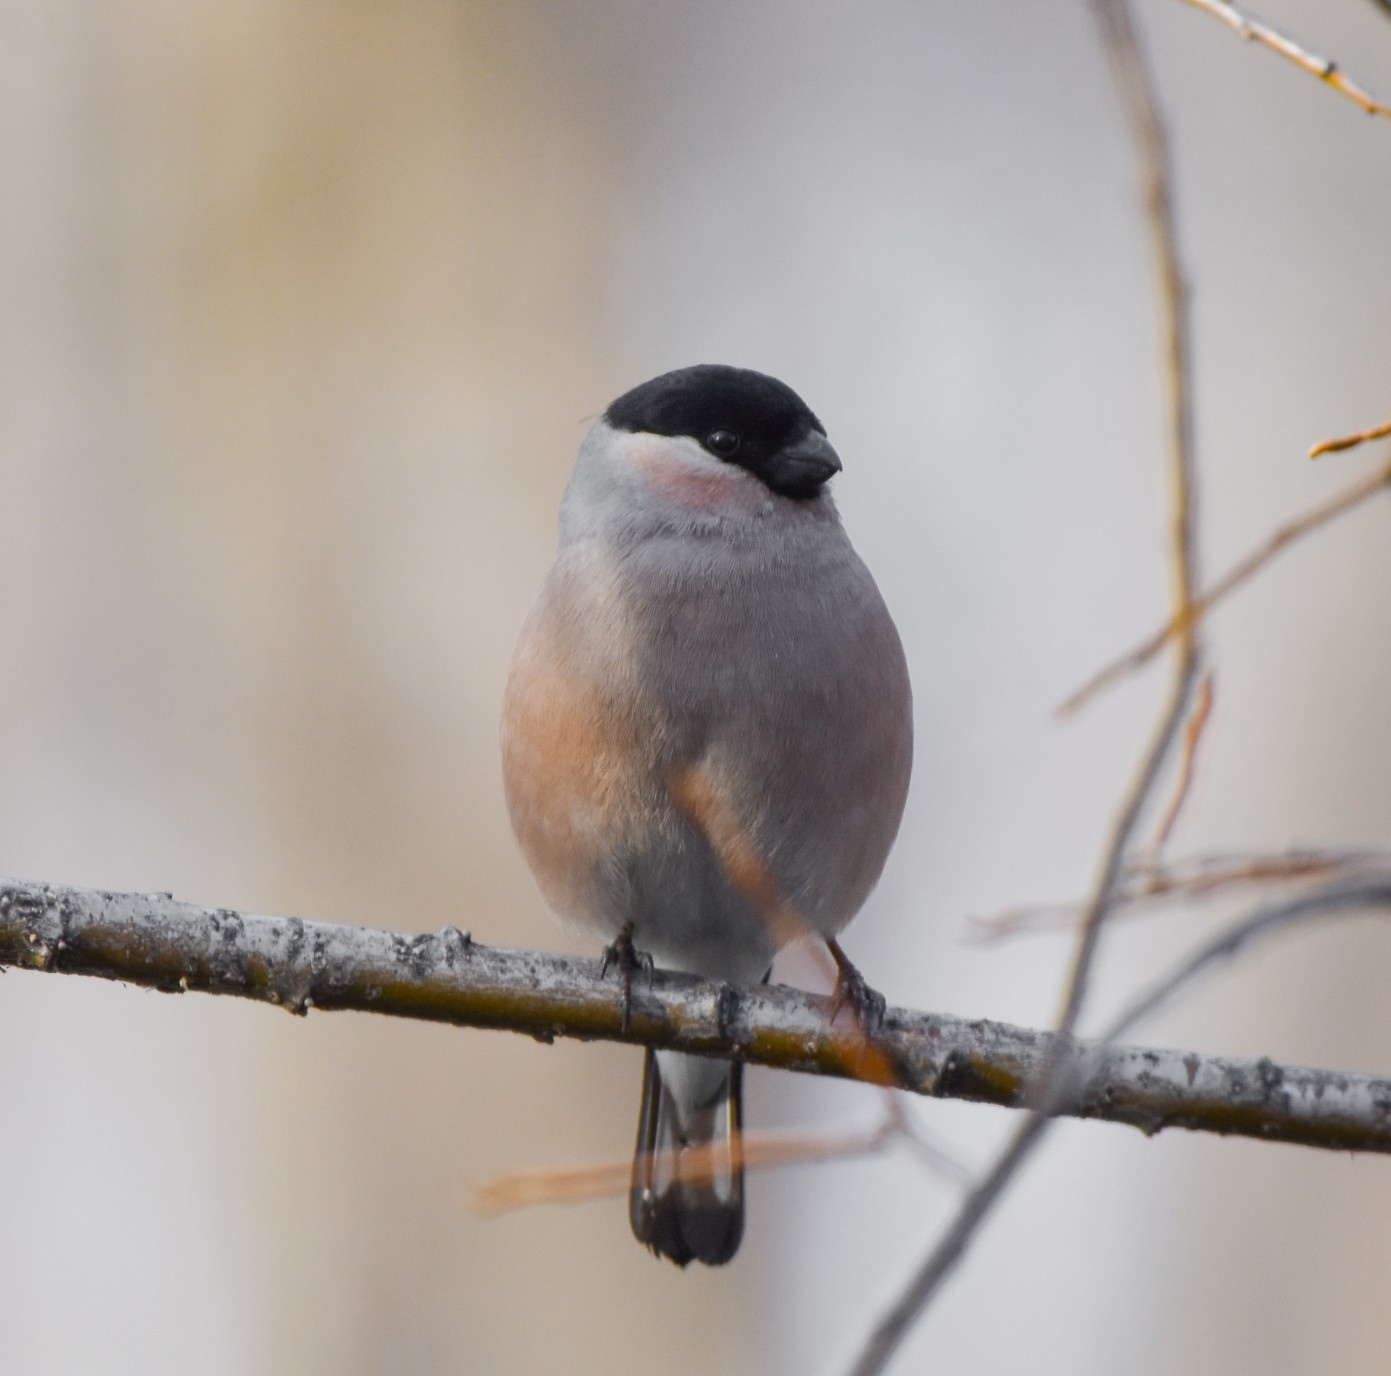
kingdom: Animalia
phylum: Chordata
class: Aves
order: Passeriformes
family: Fringillidae
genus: Pyrrhula
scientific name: Pyrrhula pyrrhula
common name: Eurasian bullfinch
